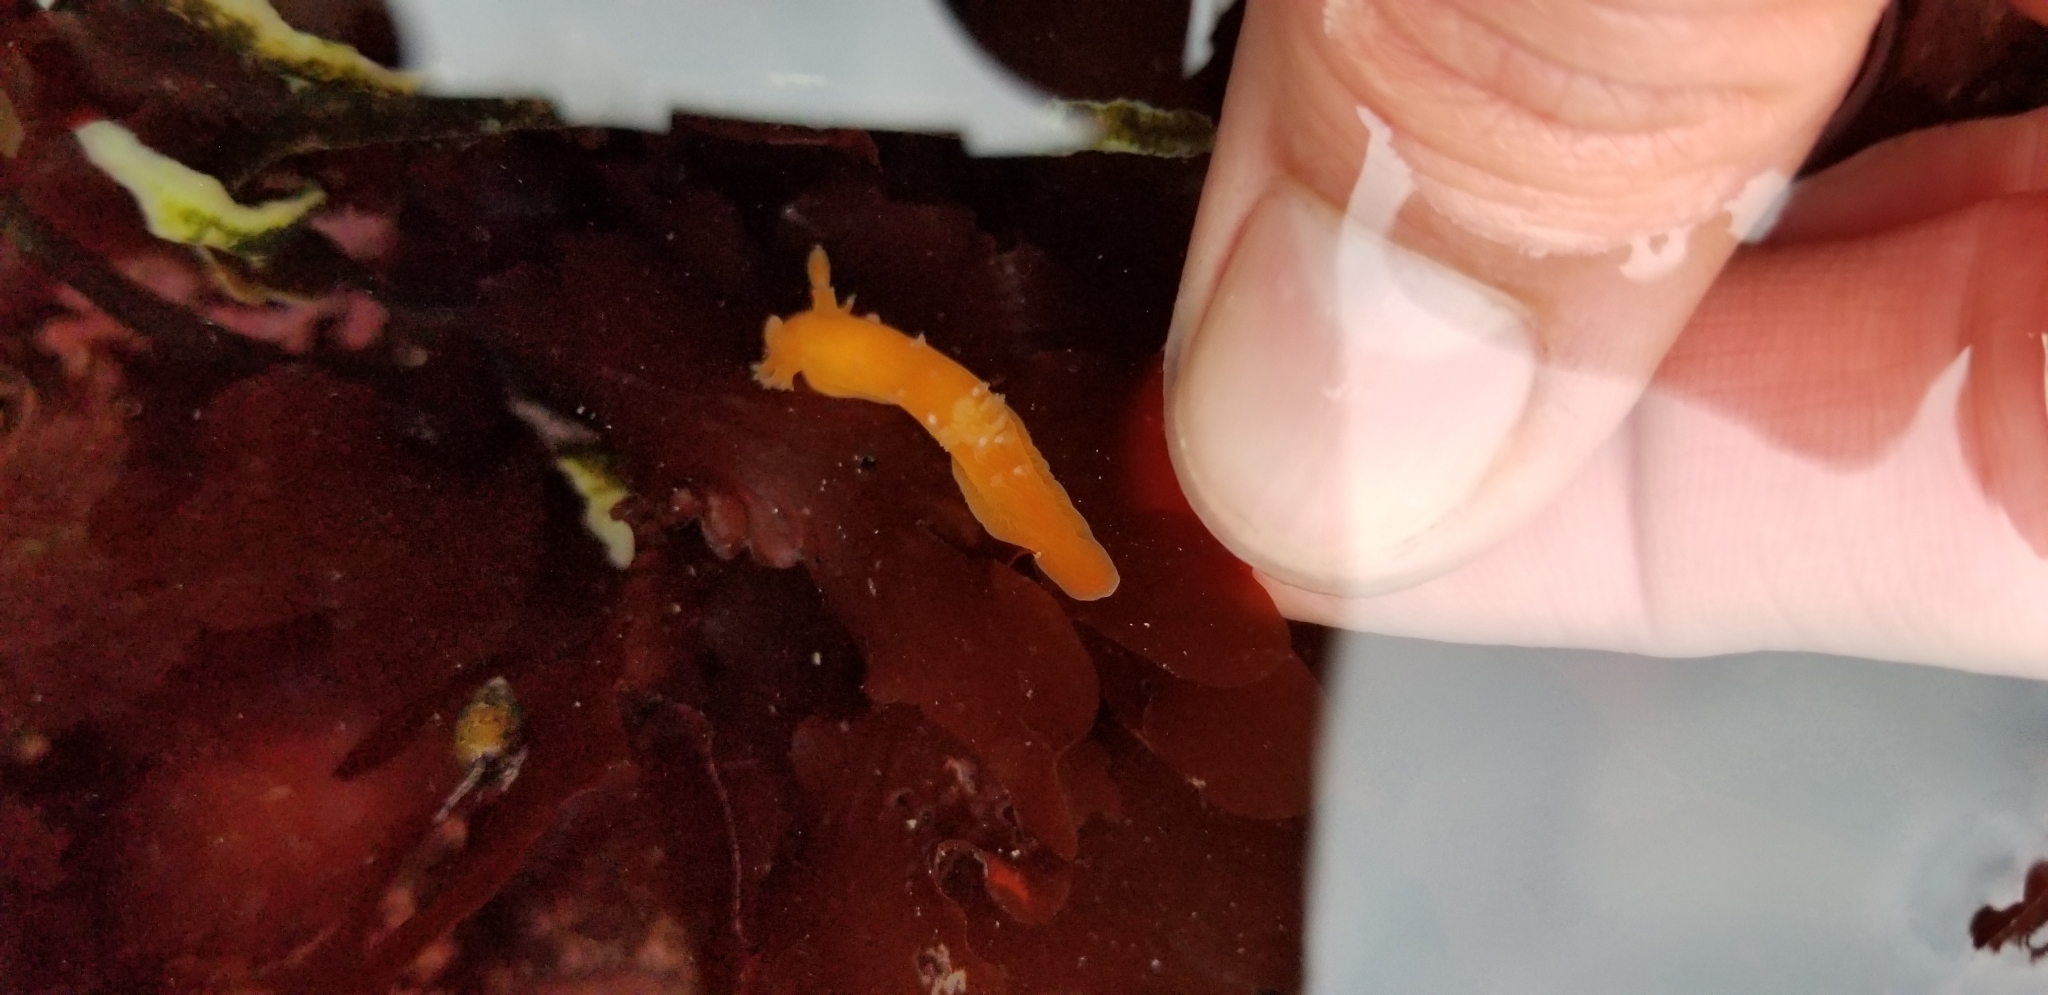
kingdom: Animalia
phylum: Mollusca
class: Gastropoda
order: Nudibranchia
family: Polyceridae
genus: Triopha
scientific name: Triopha maculata
